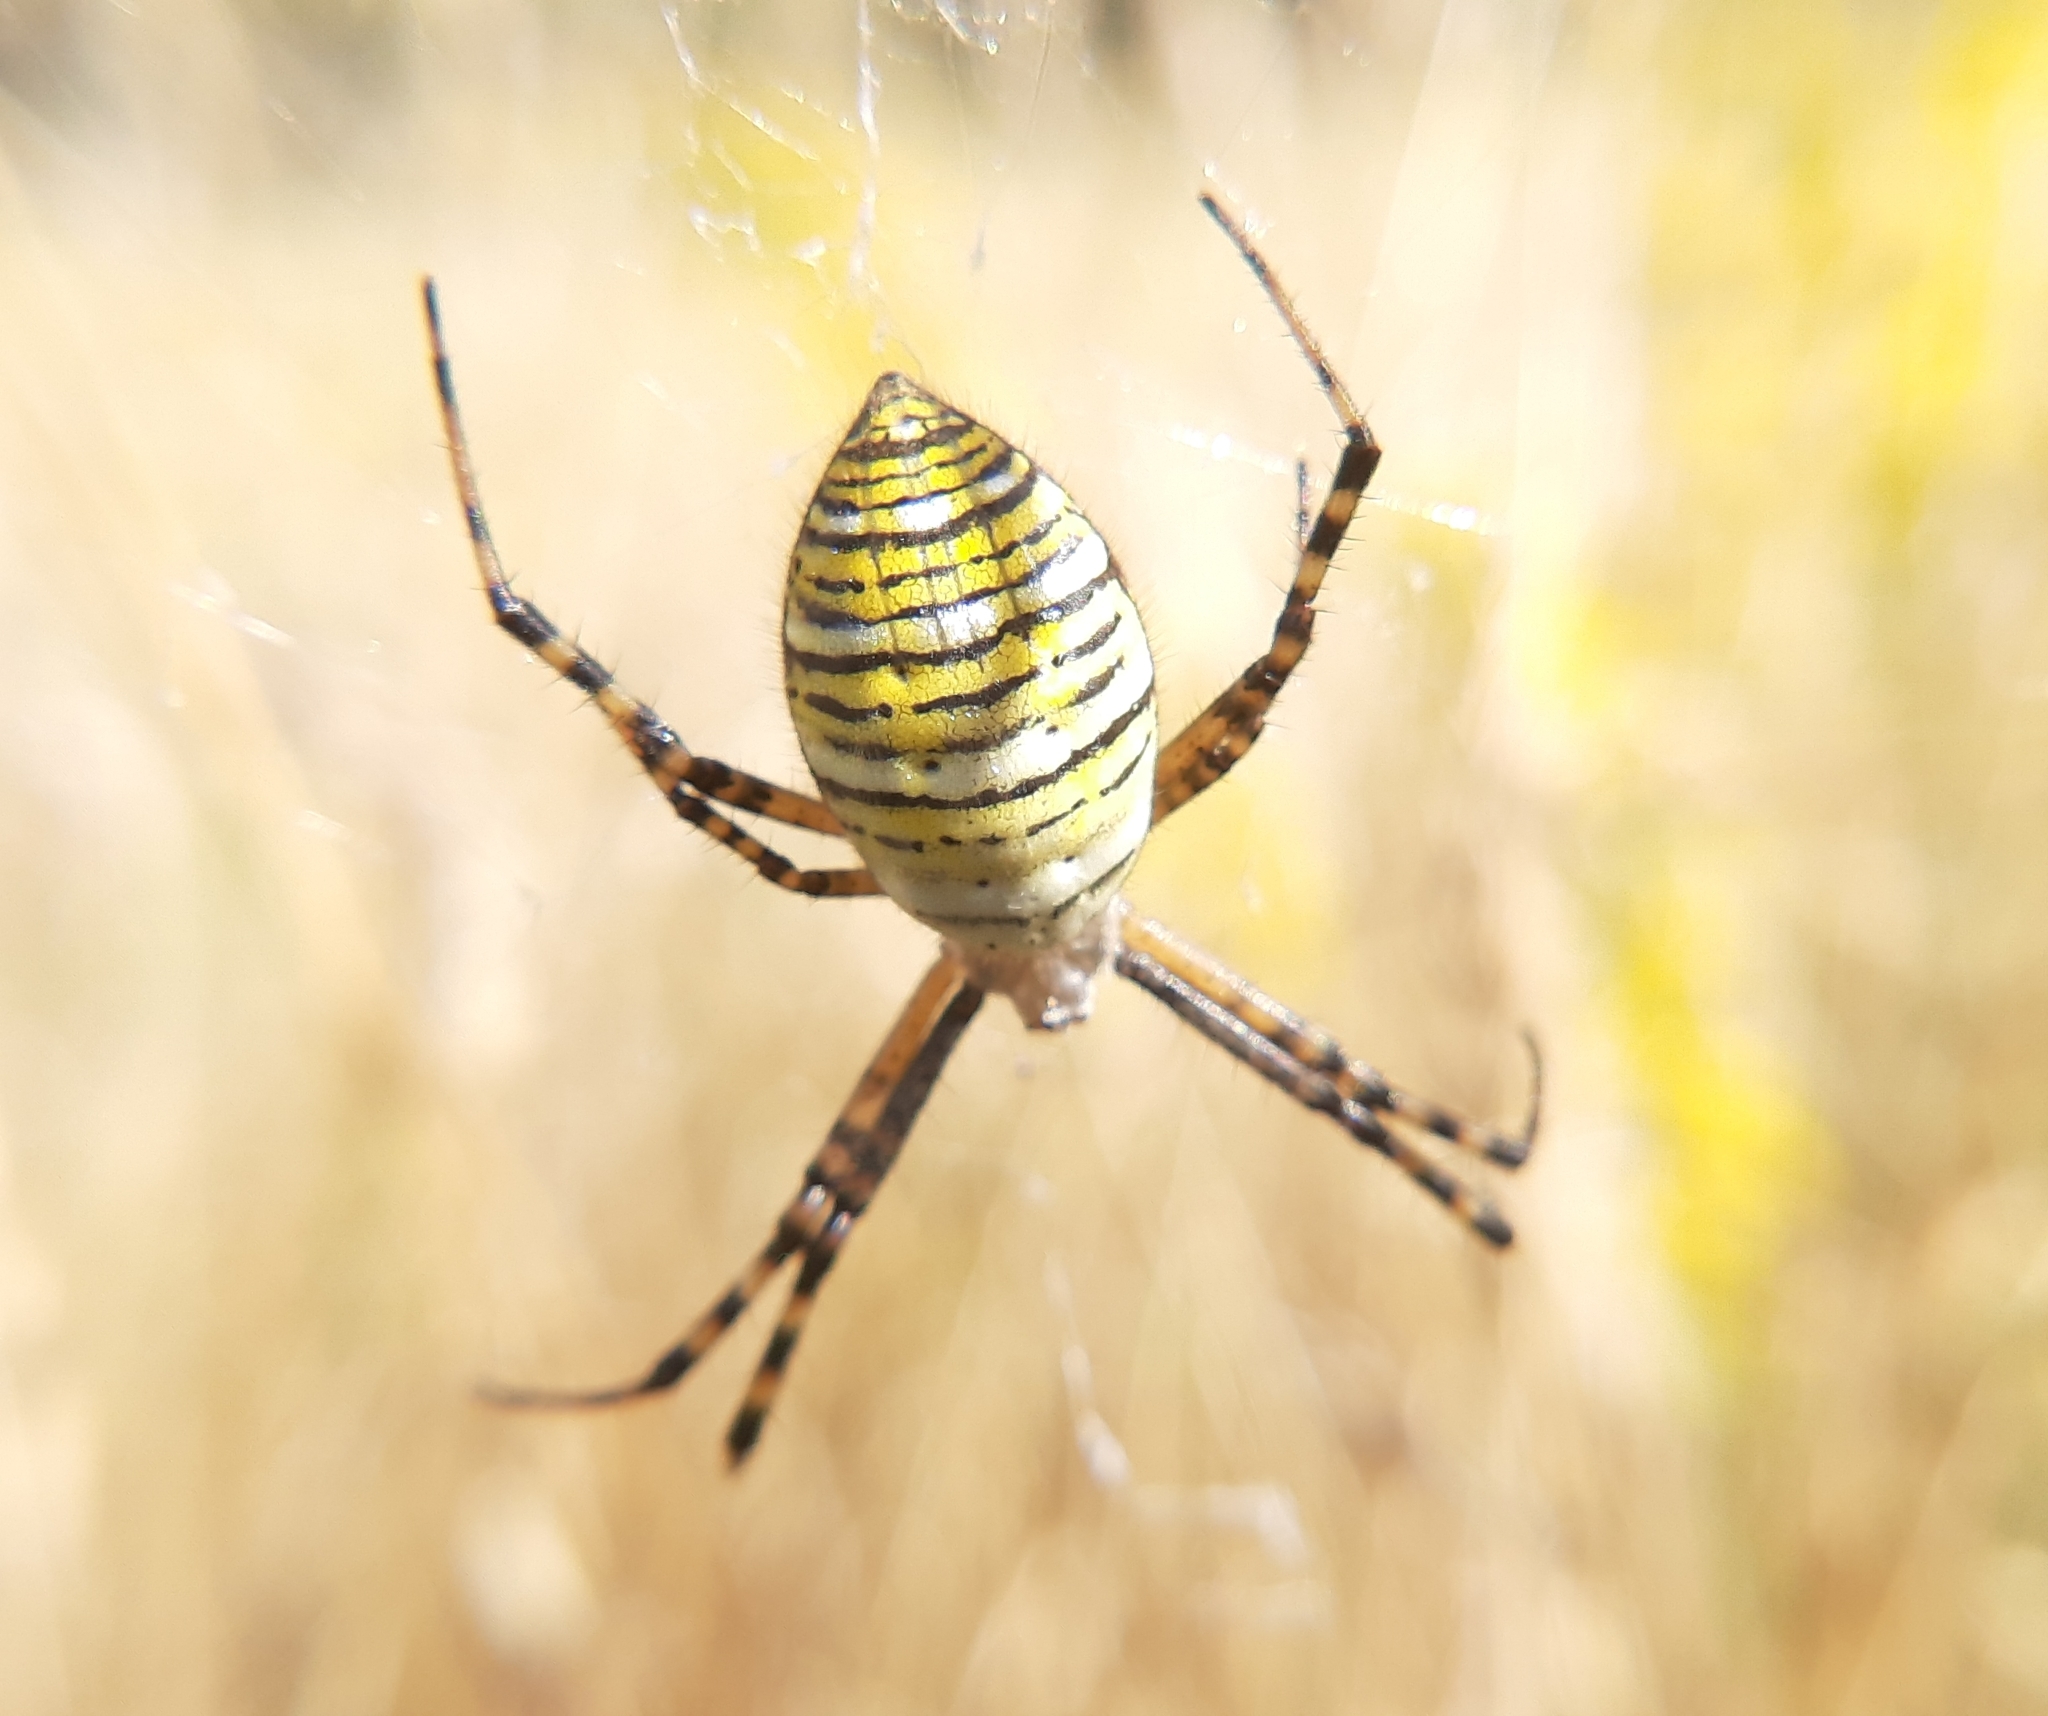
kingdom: Animalia
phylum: Arthropoda
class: Arachnida
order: Araneae
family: Araneidae
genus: Argiope
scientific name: Argiope trifasciata
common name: Banded garden spider
